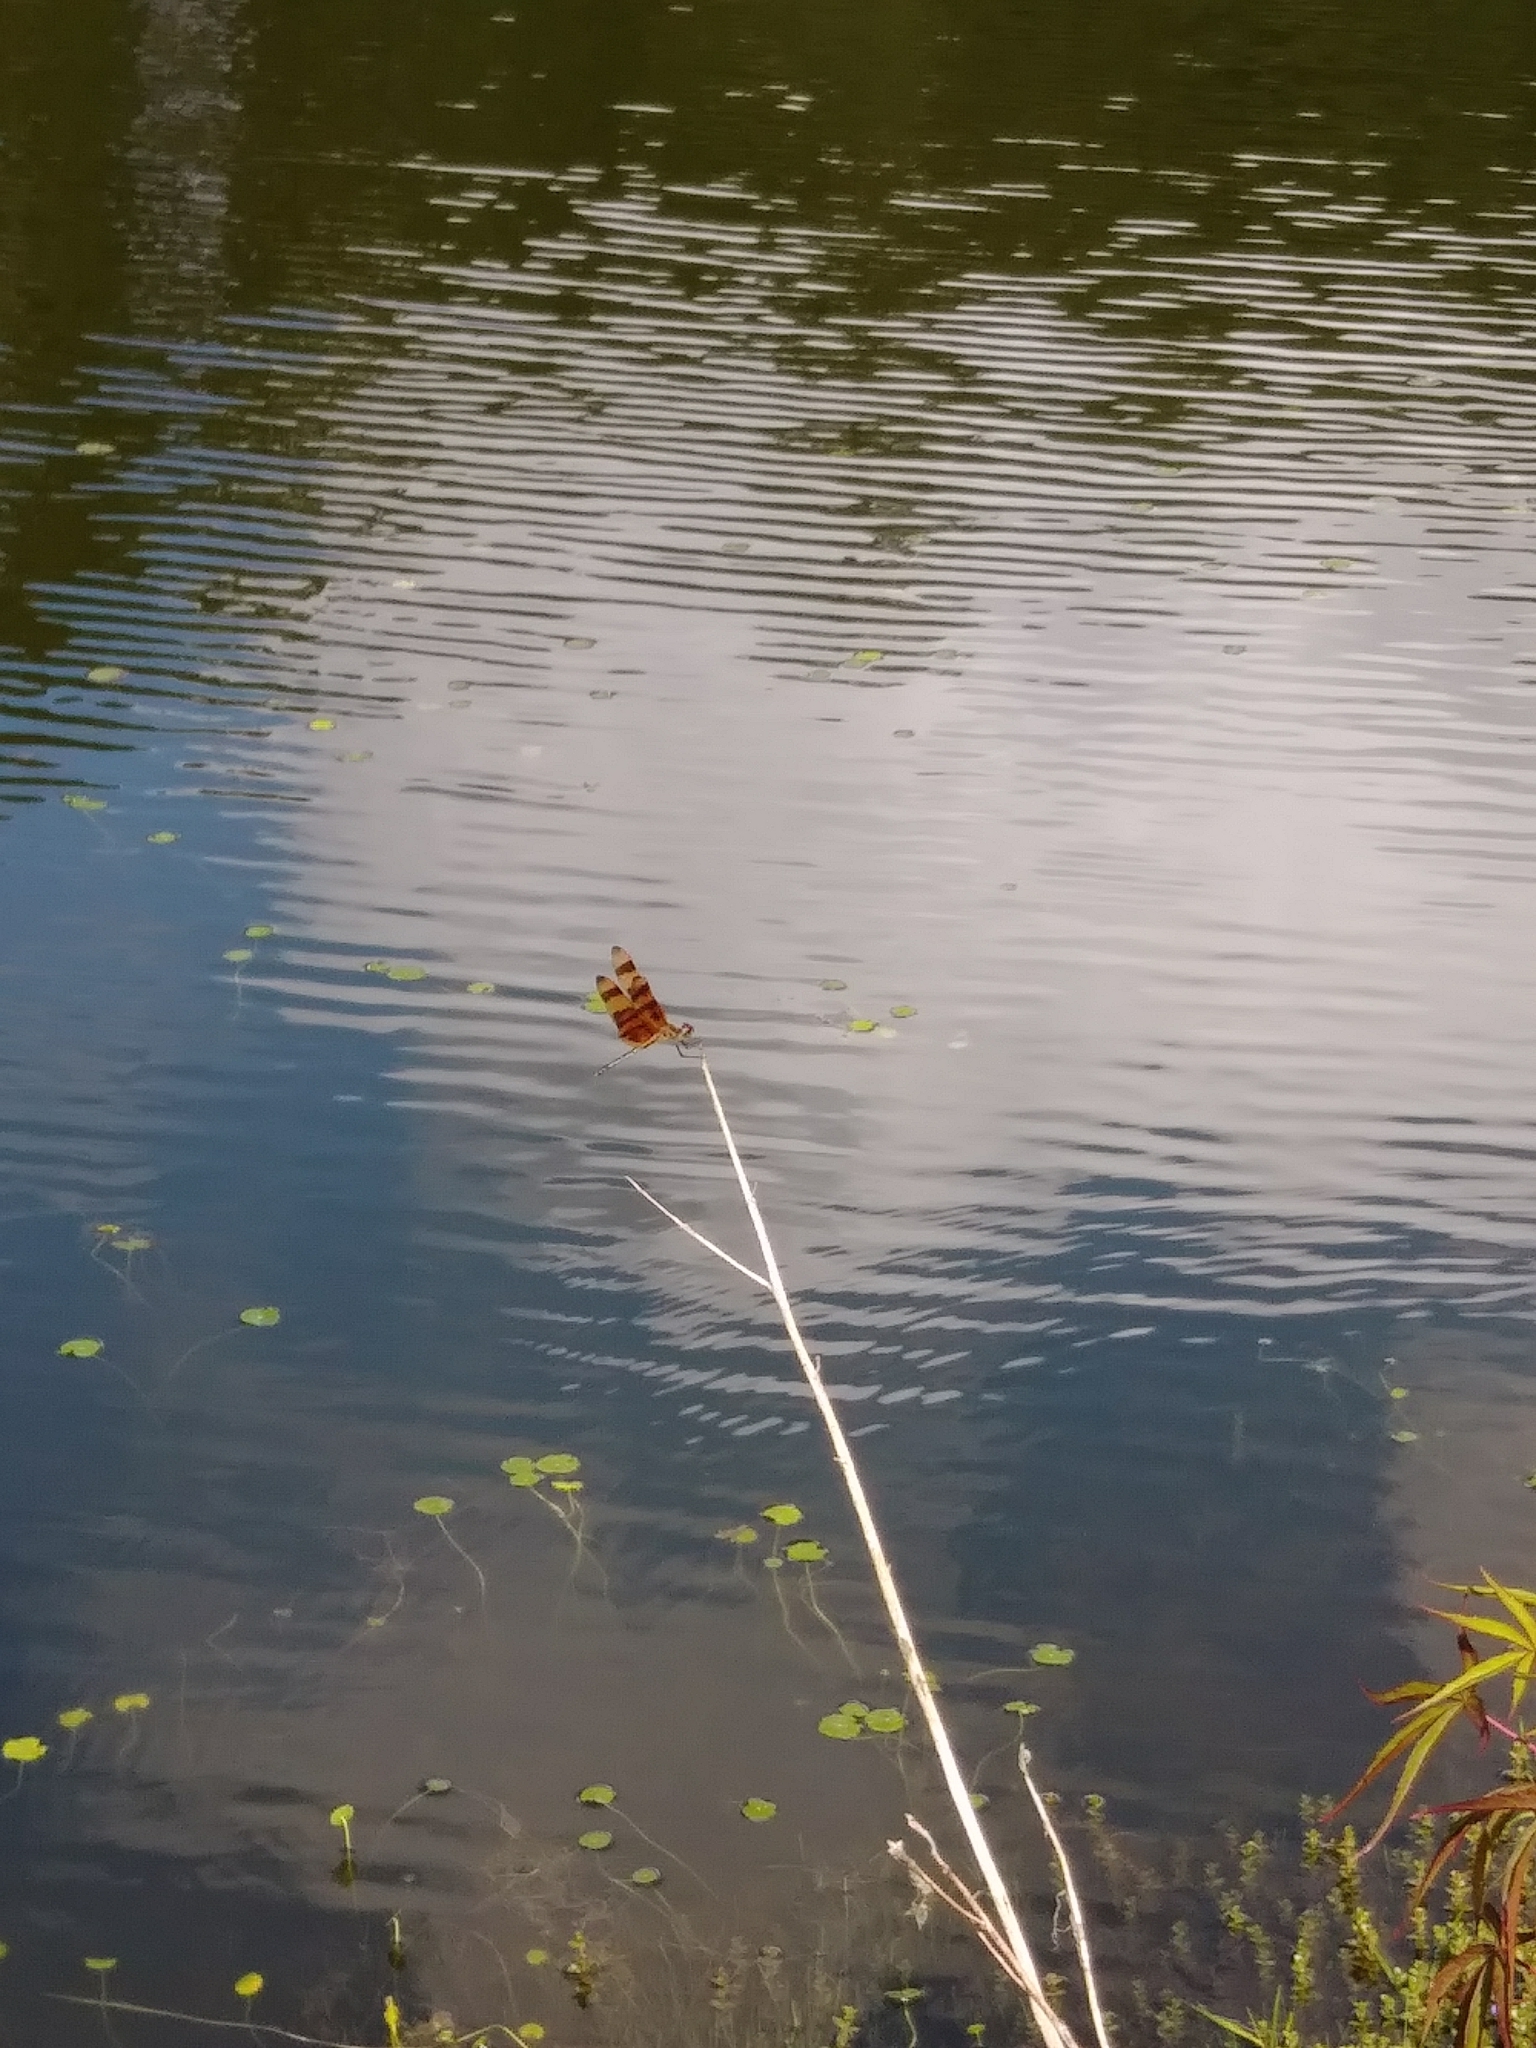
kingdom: Animalia
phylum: Arthropoda
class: Insecta
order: Odonata
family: Libellulidae
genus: Celithemis
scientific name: Celithemis eponina
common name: Halloween pennant
